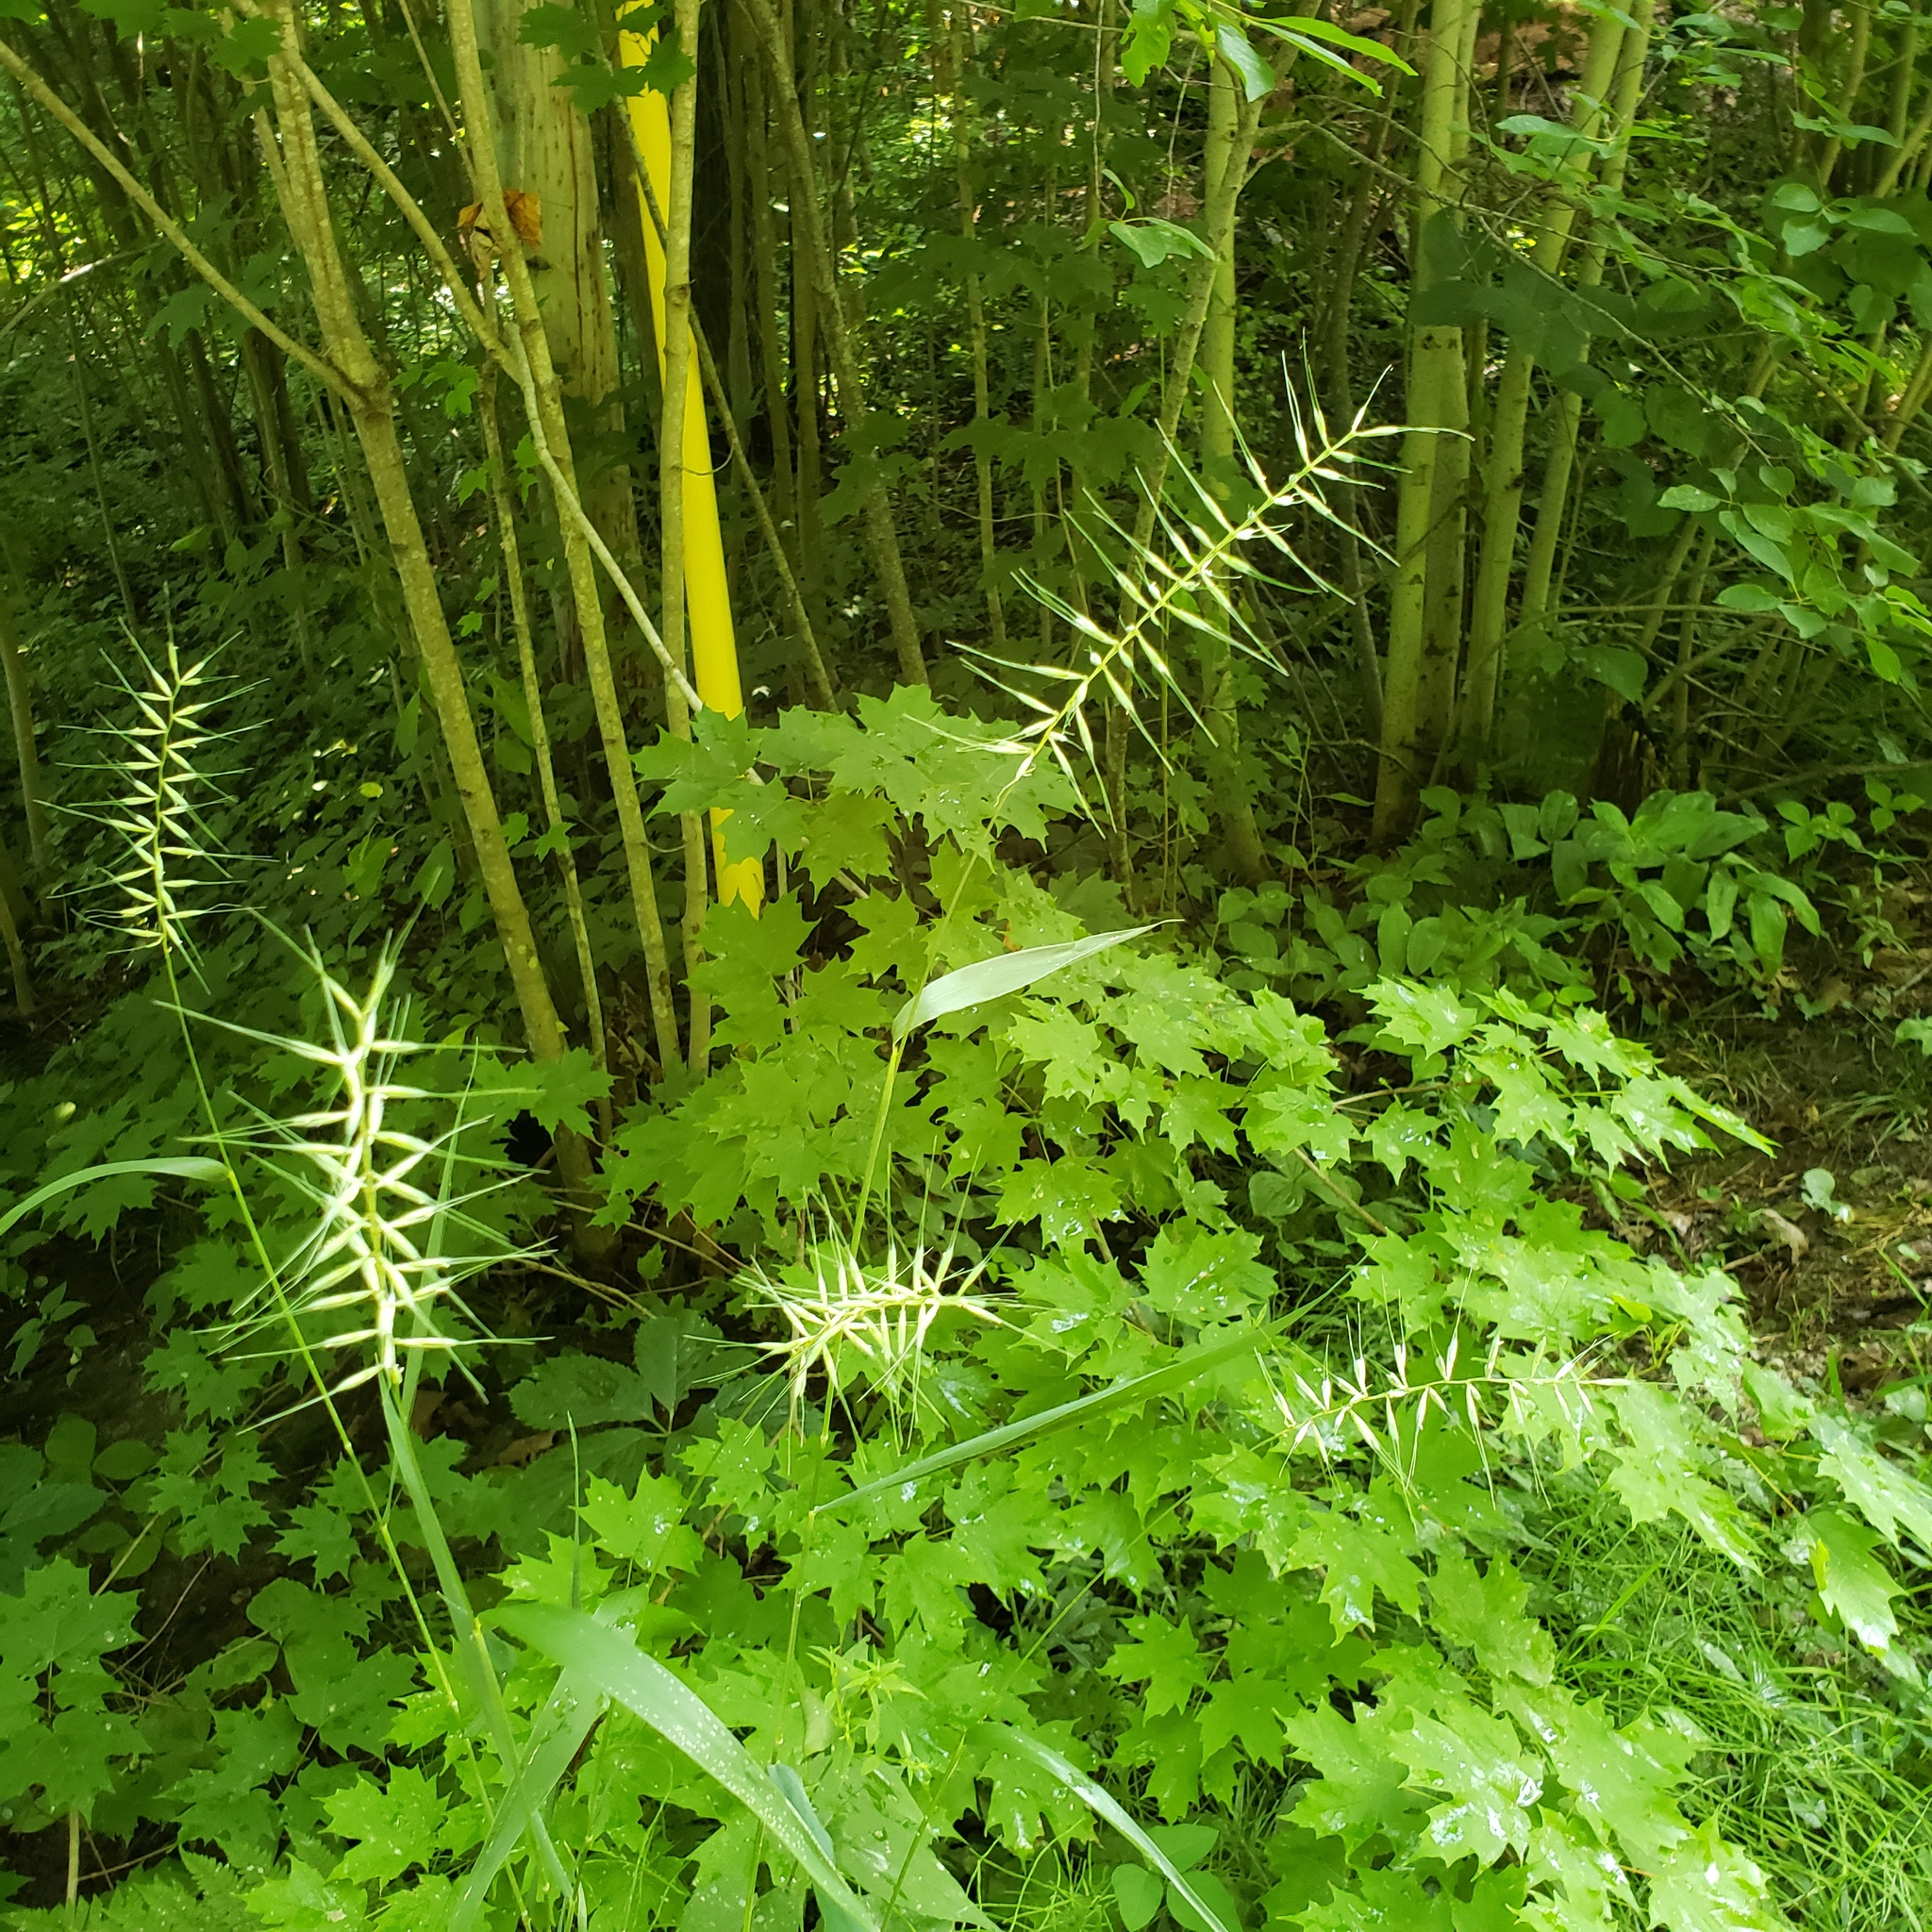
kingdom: Plantae
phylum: Tracheophyta
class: Liliopsida
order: Poales
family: Poaceae
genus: Elymus
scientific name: Elymus hystrix
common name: Bottlebrush grass
